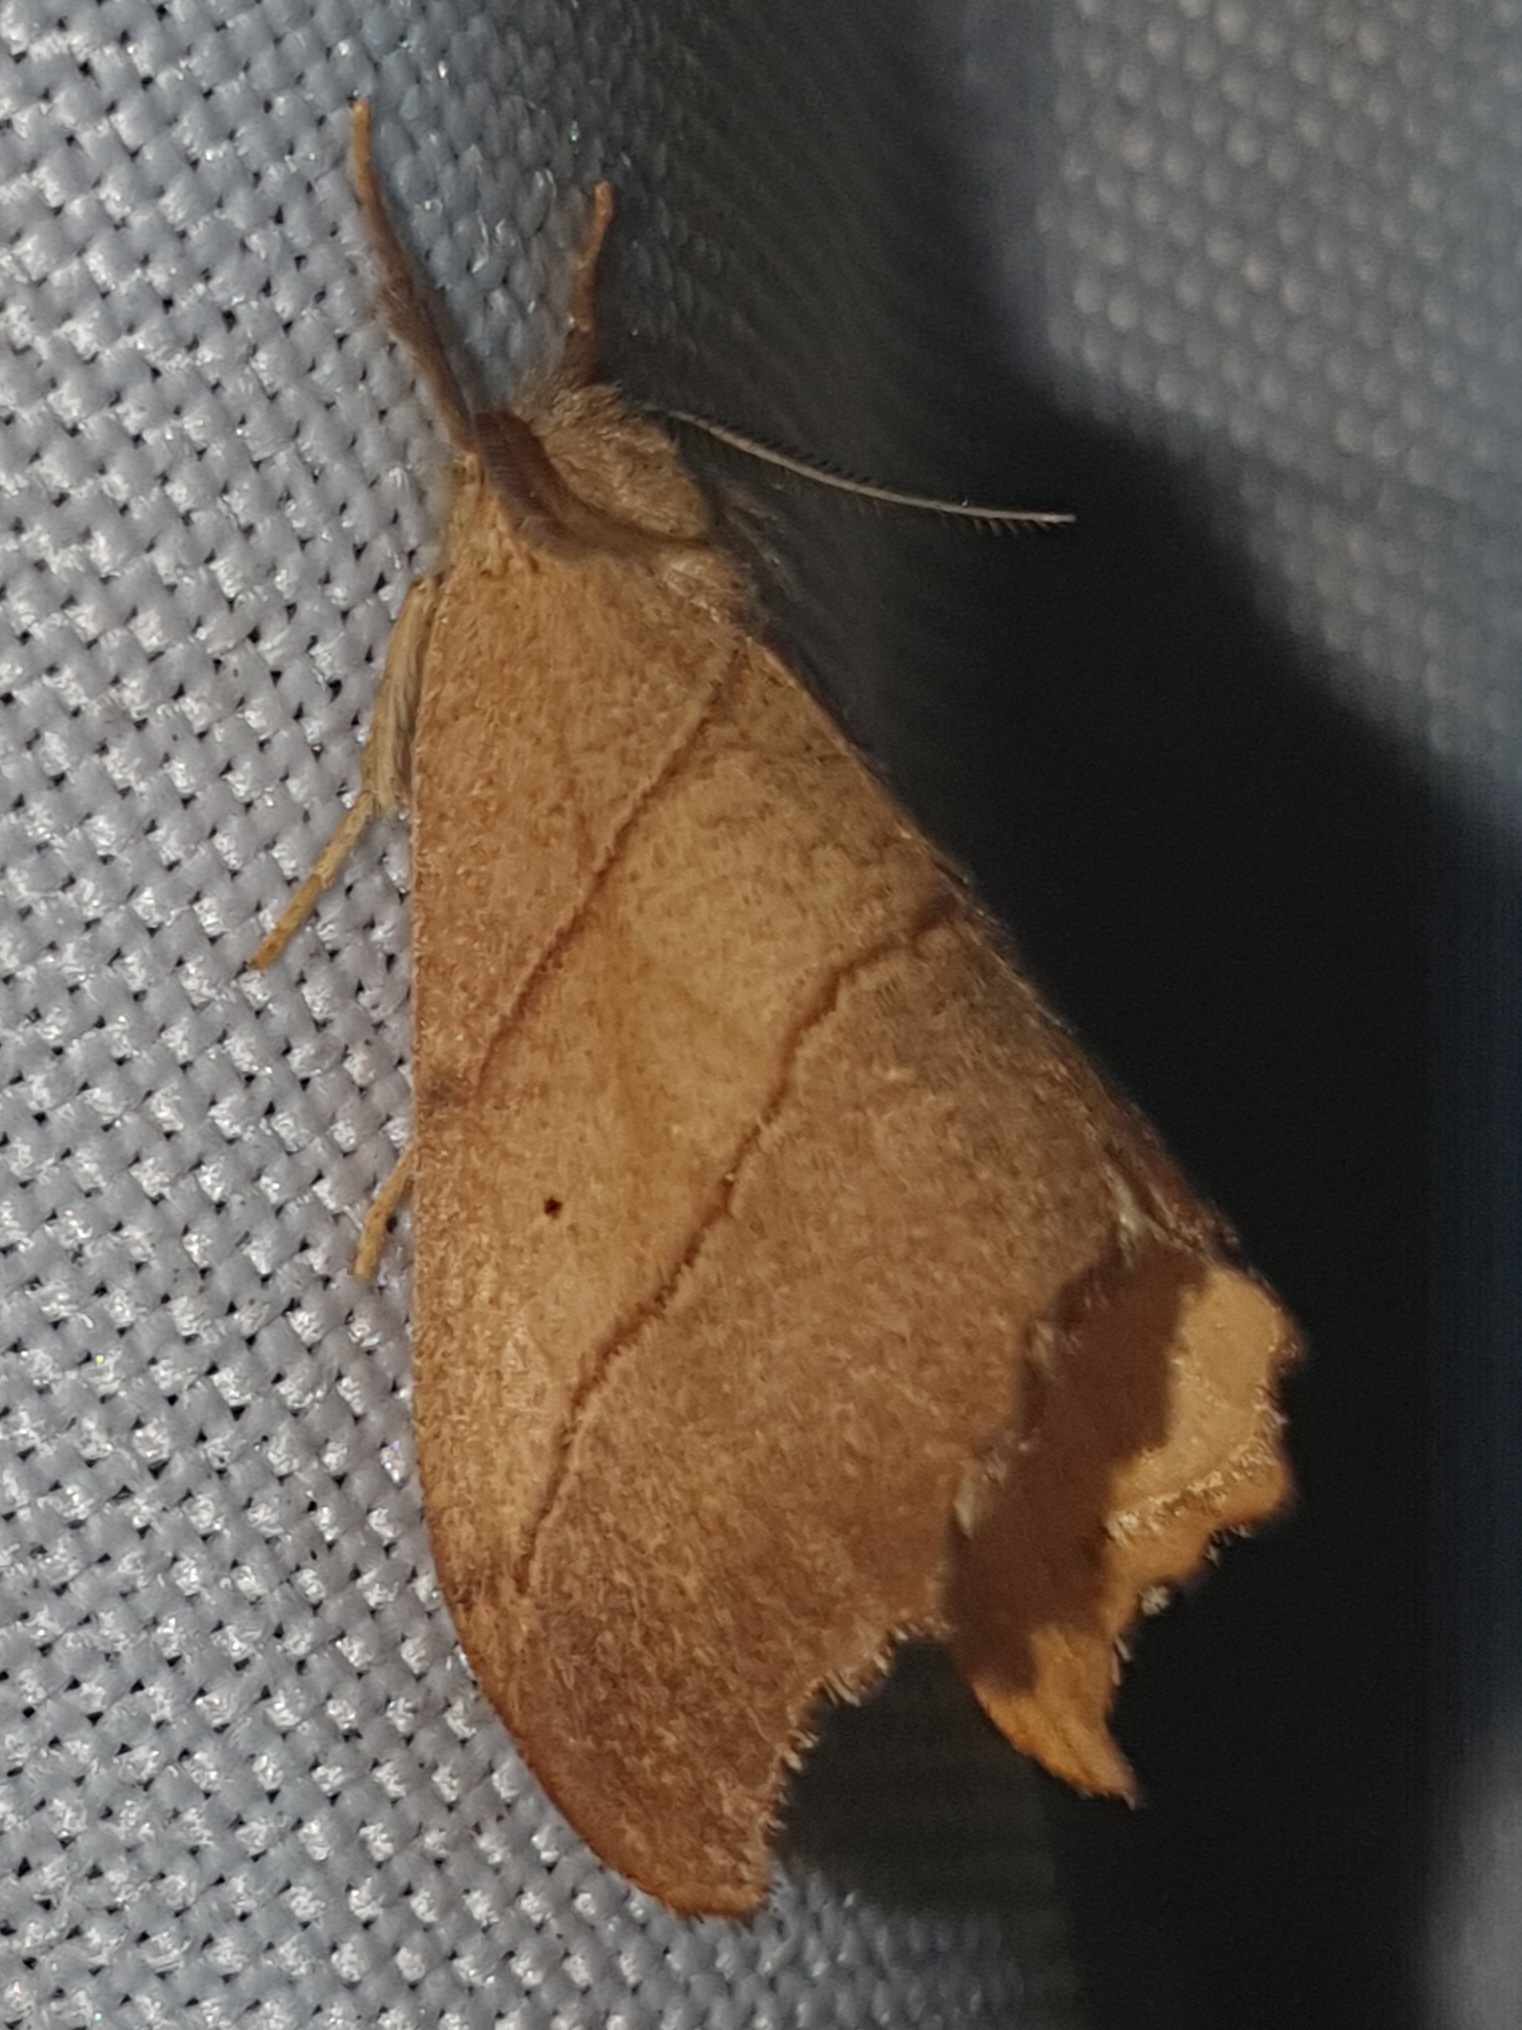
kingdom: Animalia
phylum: Arthropoda
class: Insecta
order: Lepidoptera
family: Drepanidae
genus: Falcaria
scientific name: Falcaria lacertinaria
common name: Scalloped hook-tip
